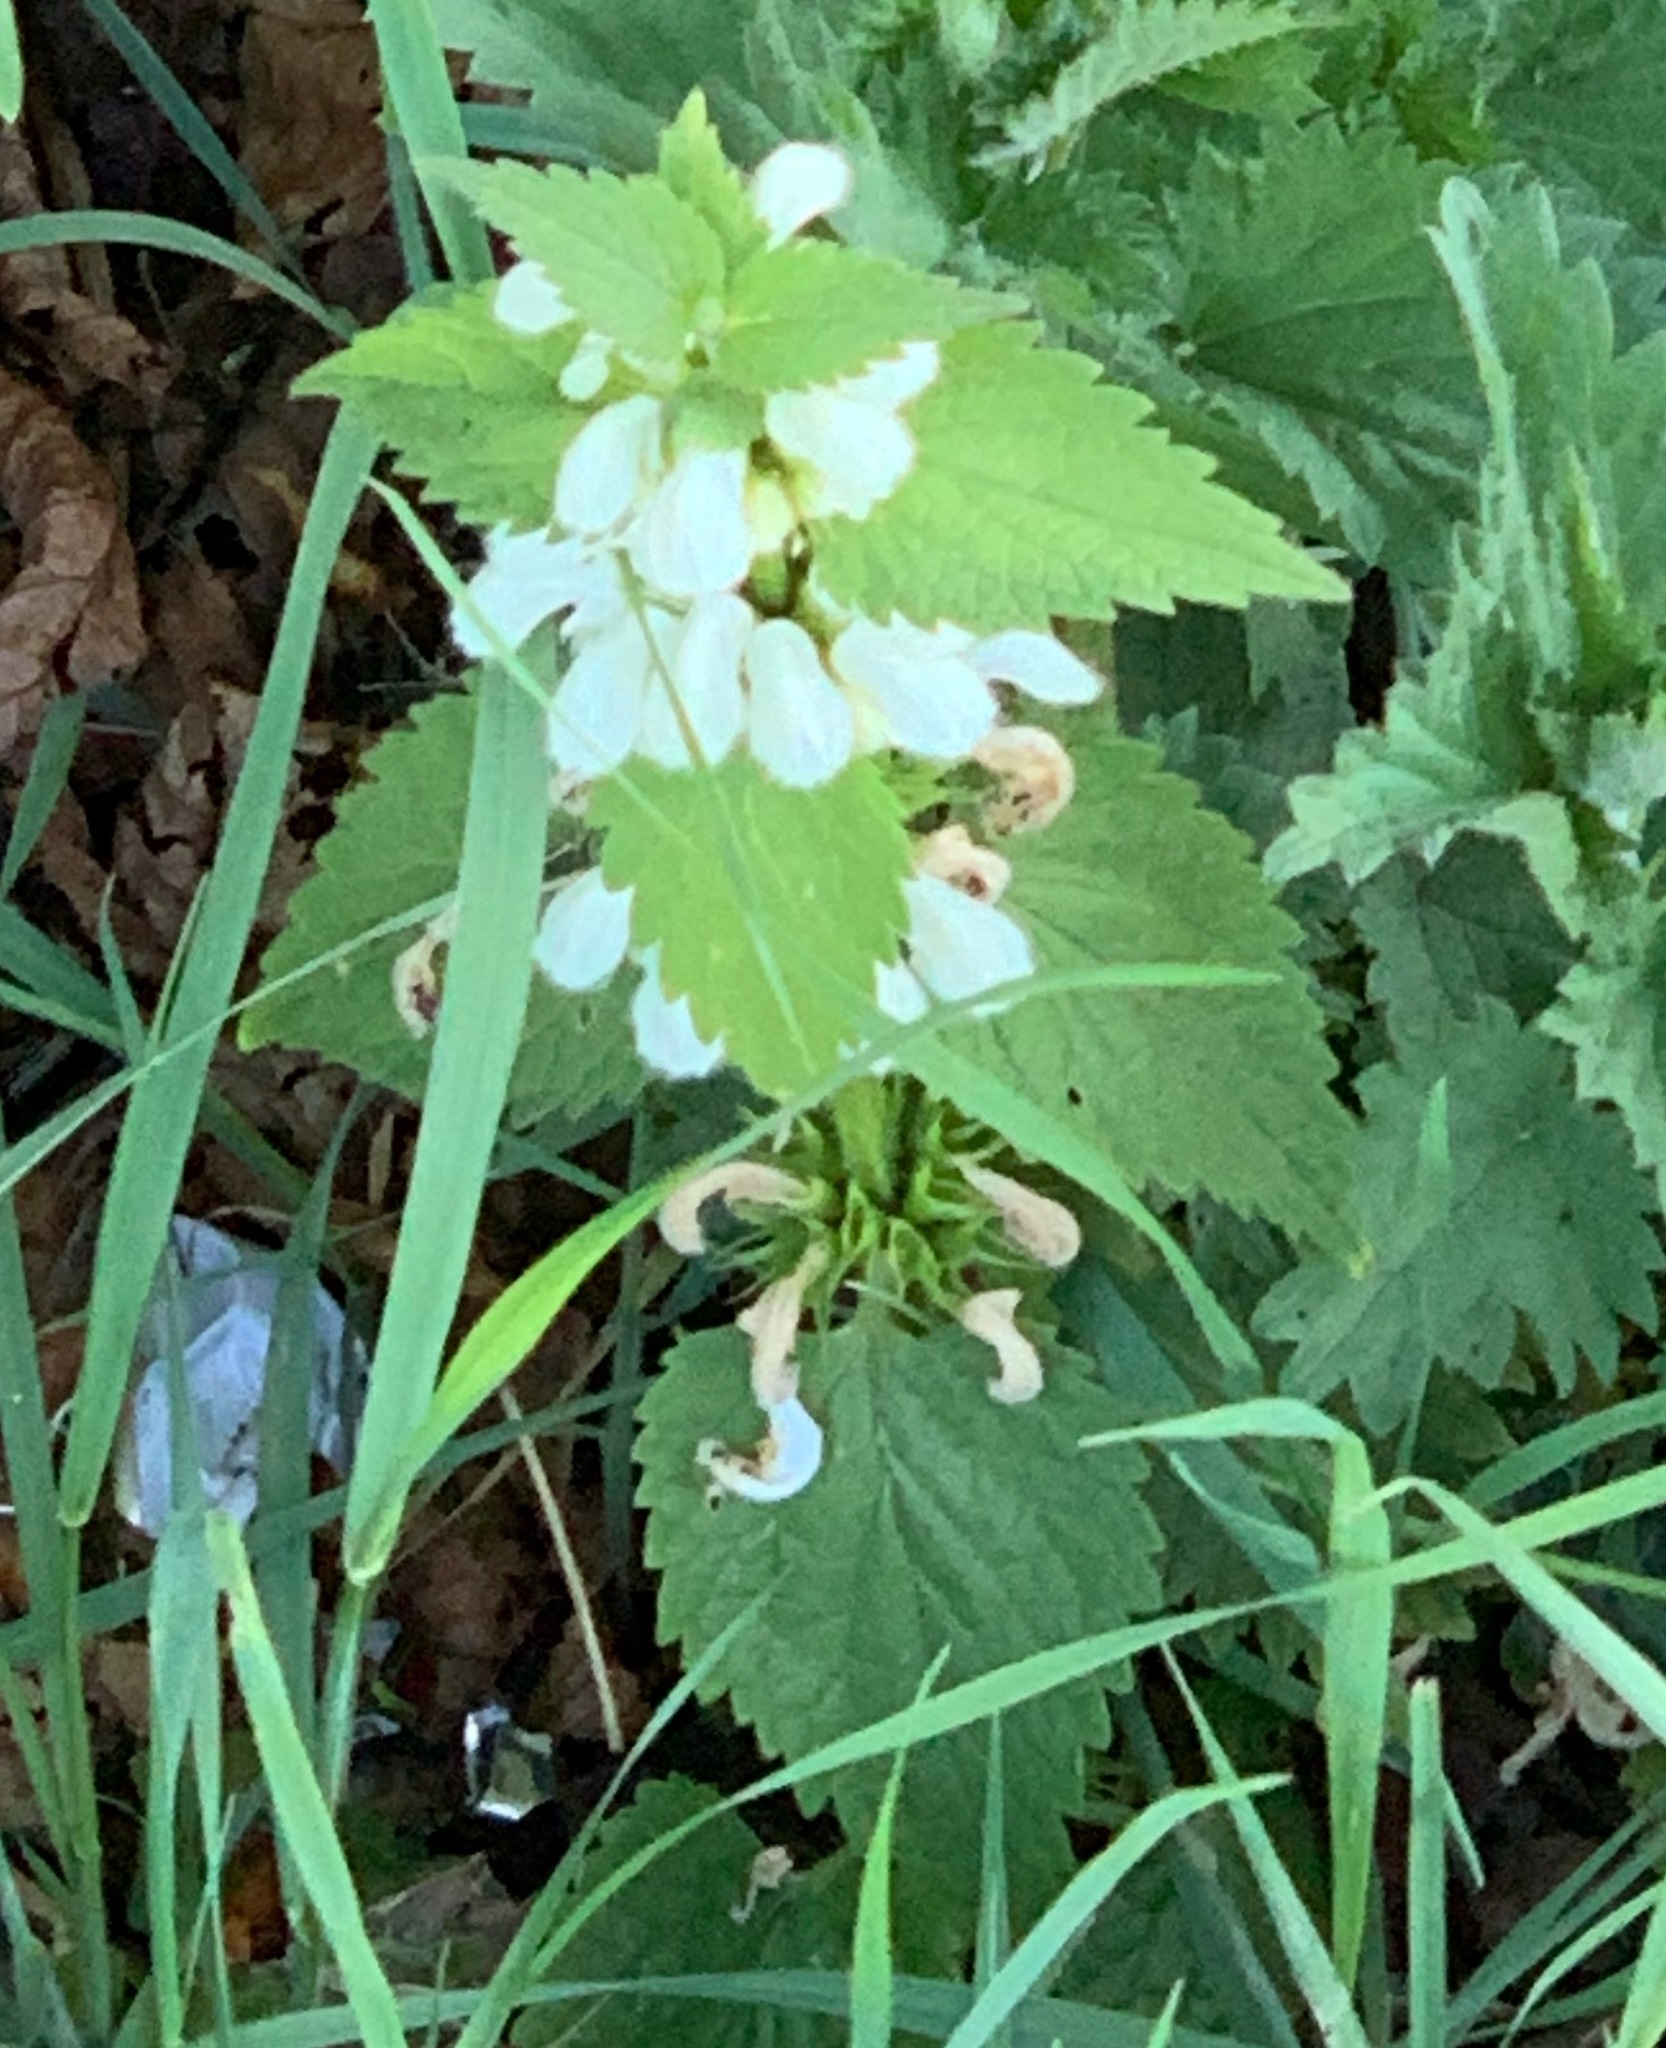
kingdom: Plantae
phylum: Tracheophyta
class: Magnoliopsida
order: Lamiales
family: Lamiaceae
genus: Lamium
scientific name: Lamium album
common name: White dead-nettle
